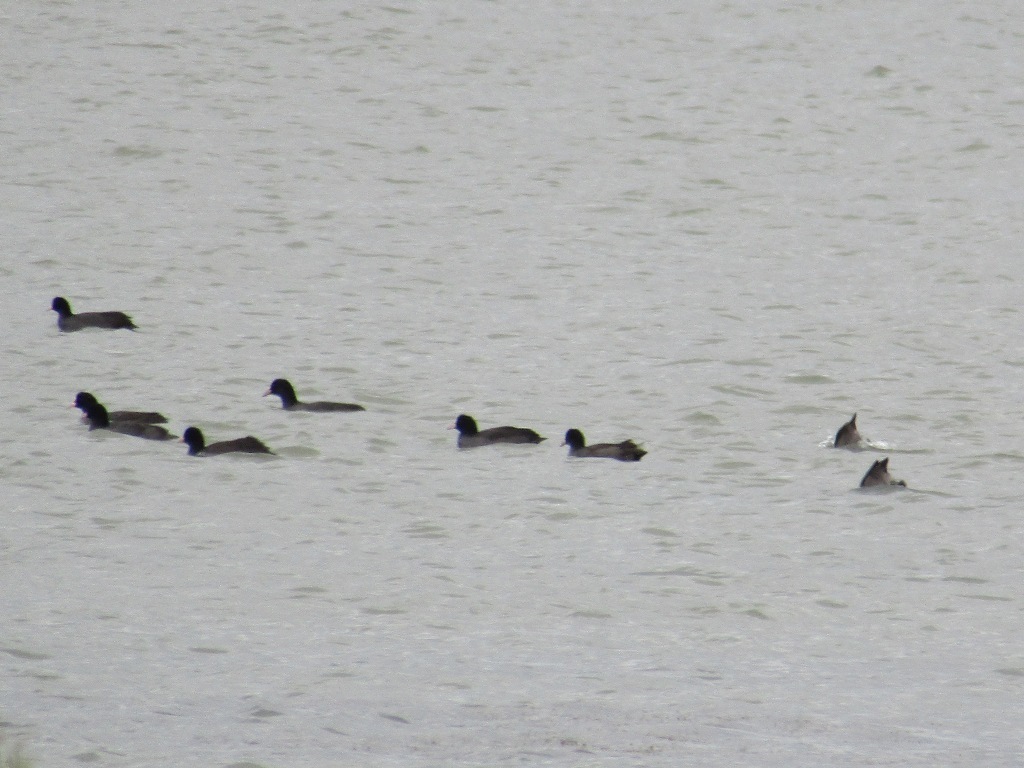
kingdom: Animalia
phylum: Chordata
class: Aves
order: Gruiformes
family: Rallidae
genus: Fulica
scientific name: Fulica atra
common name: Eurasian coot
